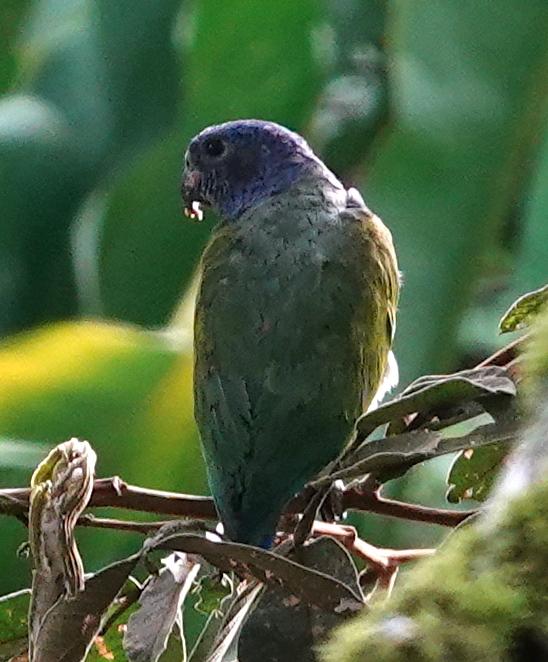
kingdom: Animalia
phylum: Chordata
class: Aves
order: Psittaciformes
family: Psittacidae
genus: Pionus
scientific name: Pionus menstruus
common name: Blue-headed parrot
